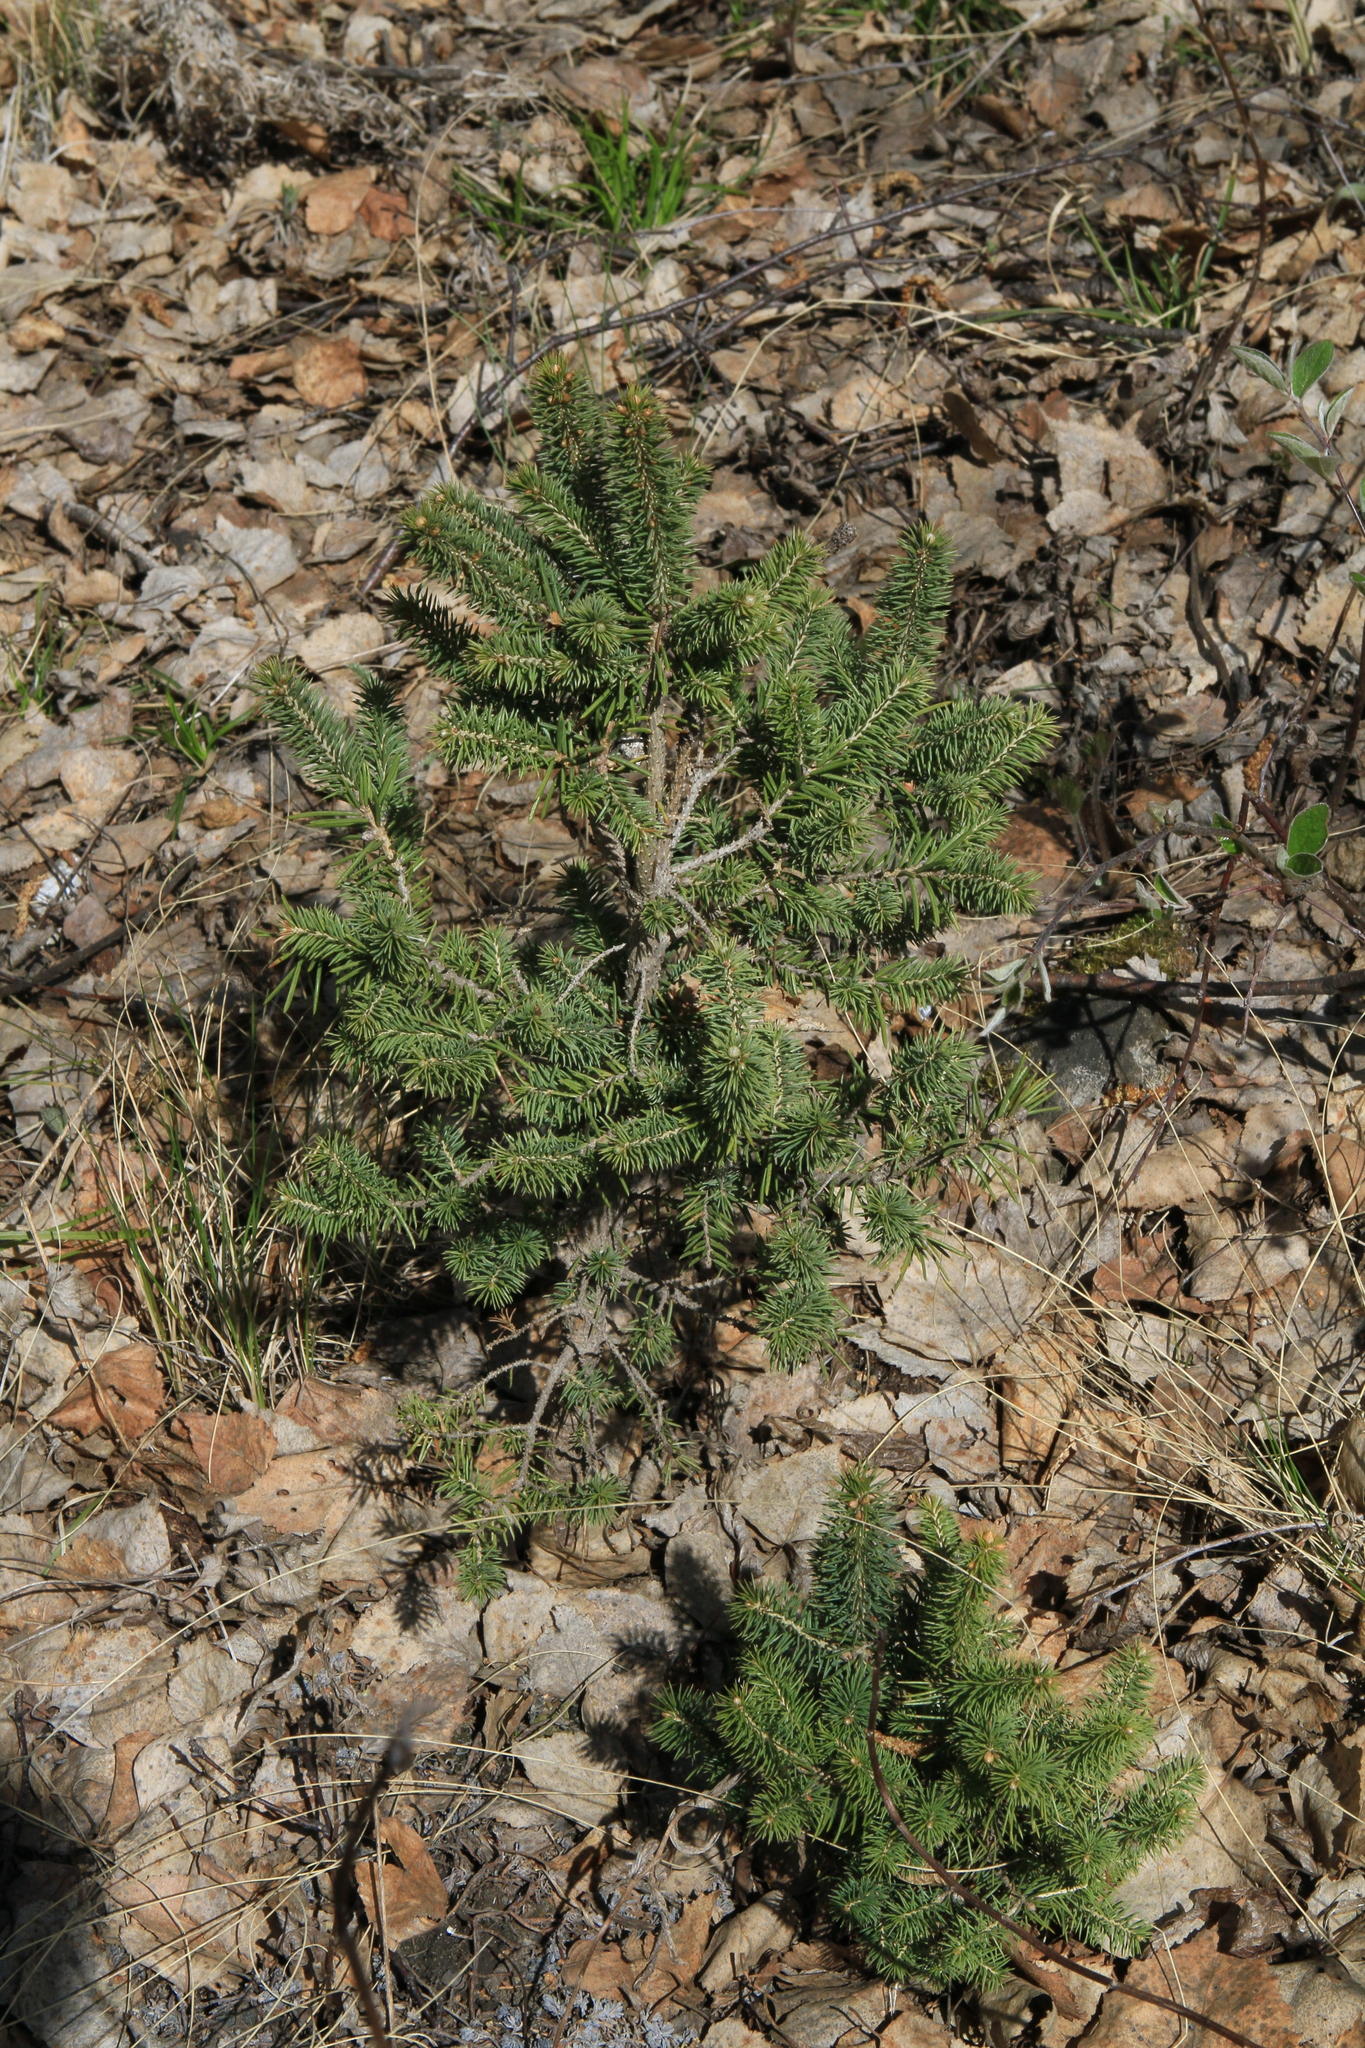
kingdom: Plantae
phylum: Tracheophyta
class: Pinopsida
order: Pinales
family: Pinaceae
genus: Picea
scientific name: Picea obovata
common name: Siberian spruce
